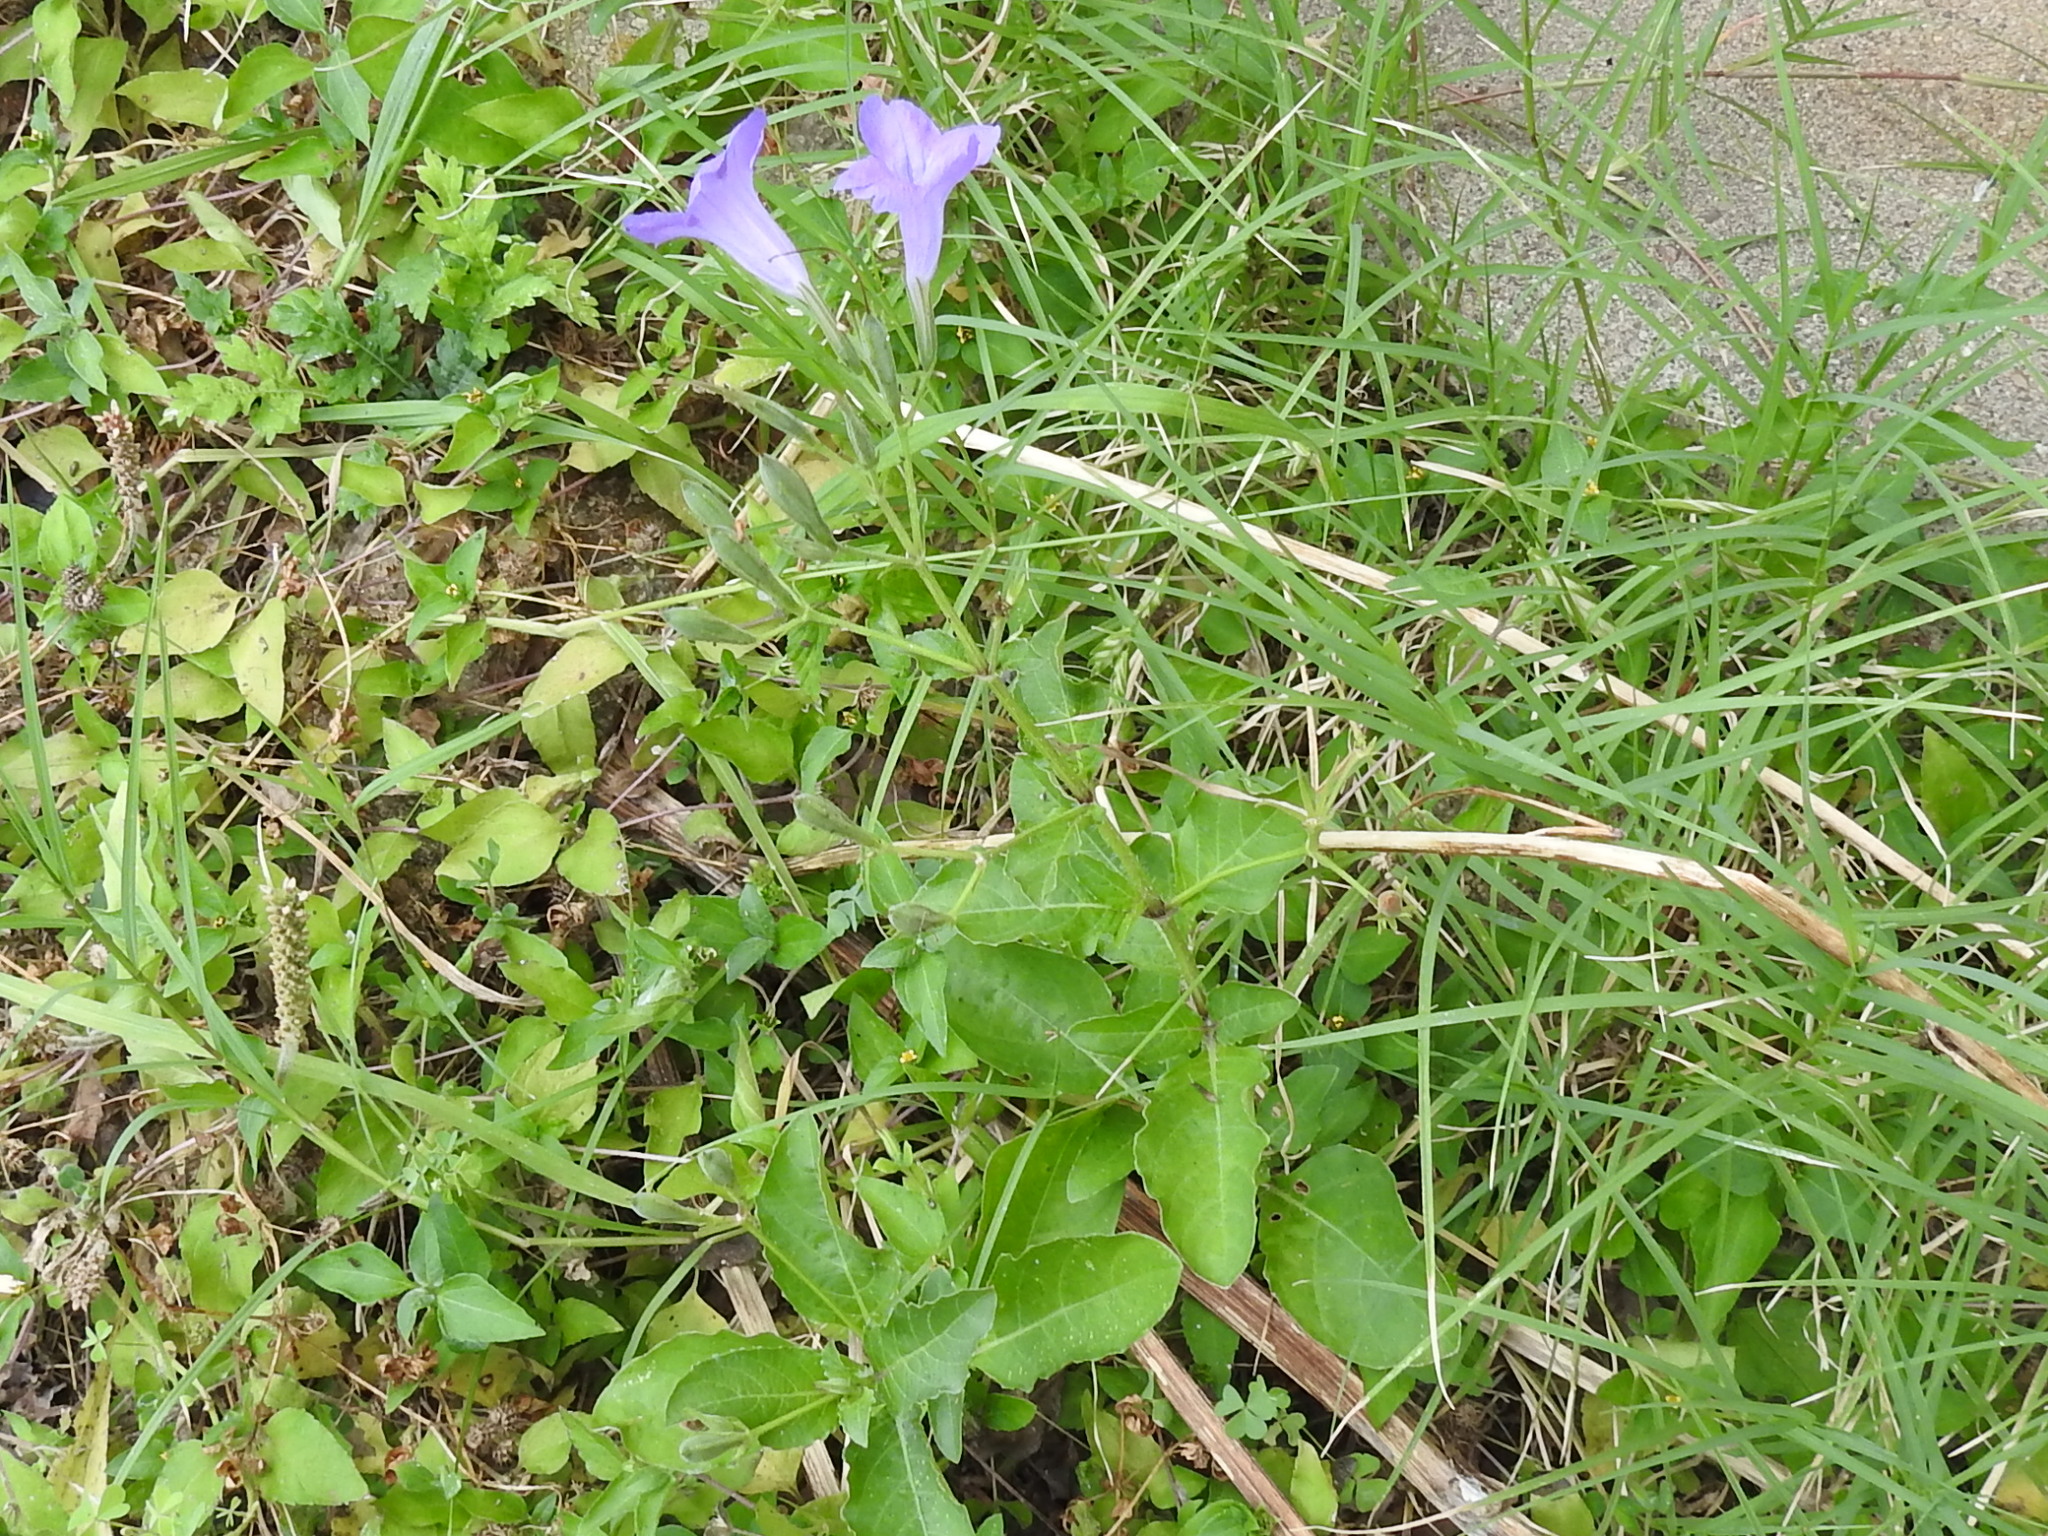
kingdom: Plantae
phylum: Tracheophyta
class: Magnoliopsida
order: Lamiales
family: Acanthaceae
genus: Ruellia
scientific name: Ruellia ciliatiflora
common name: Hairyflower wild petunia
